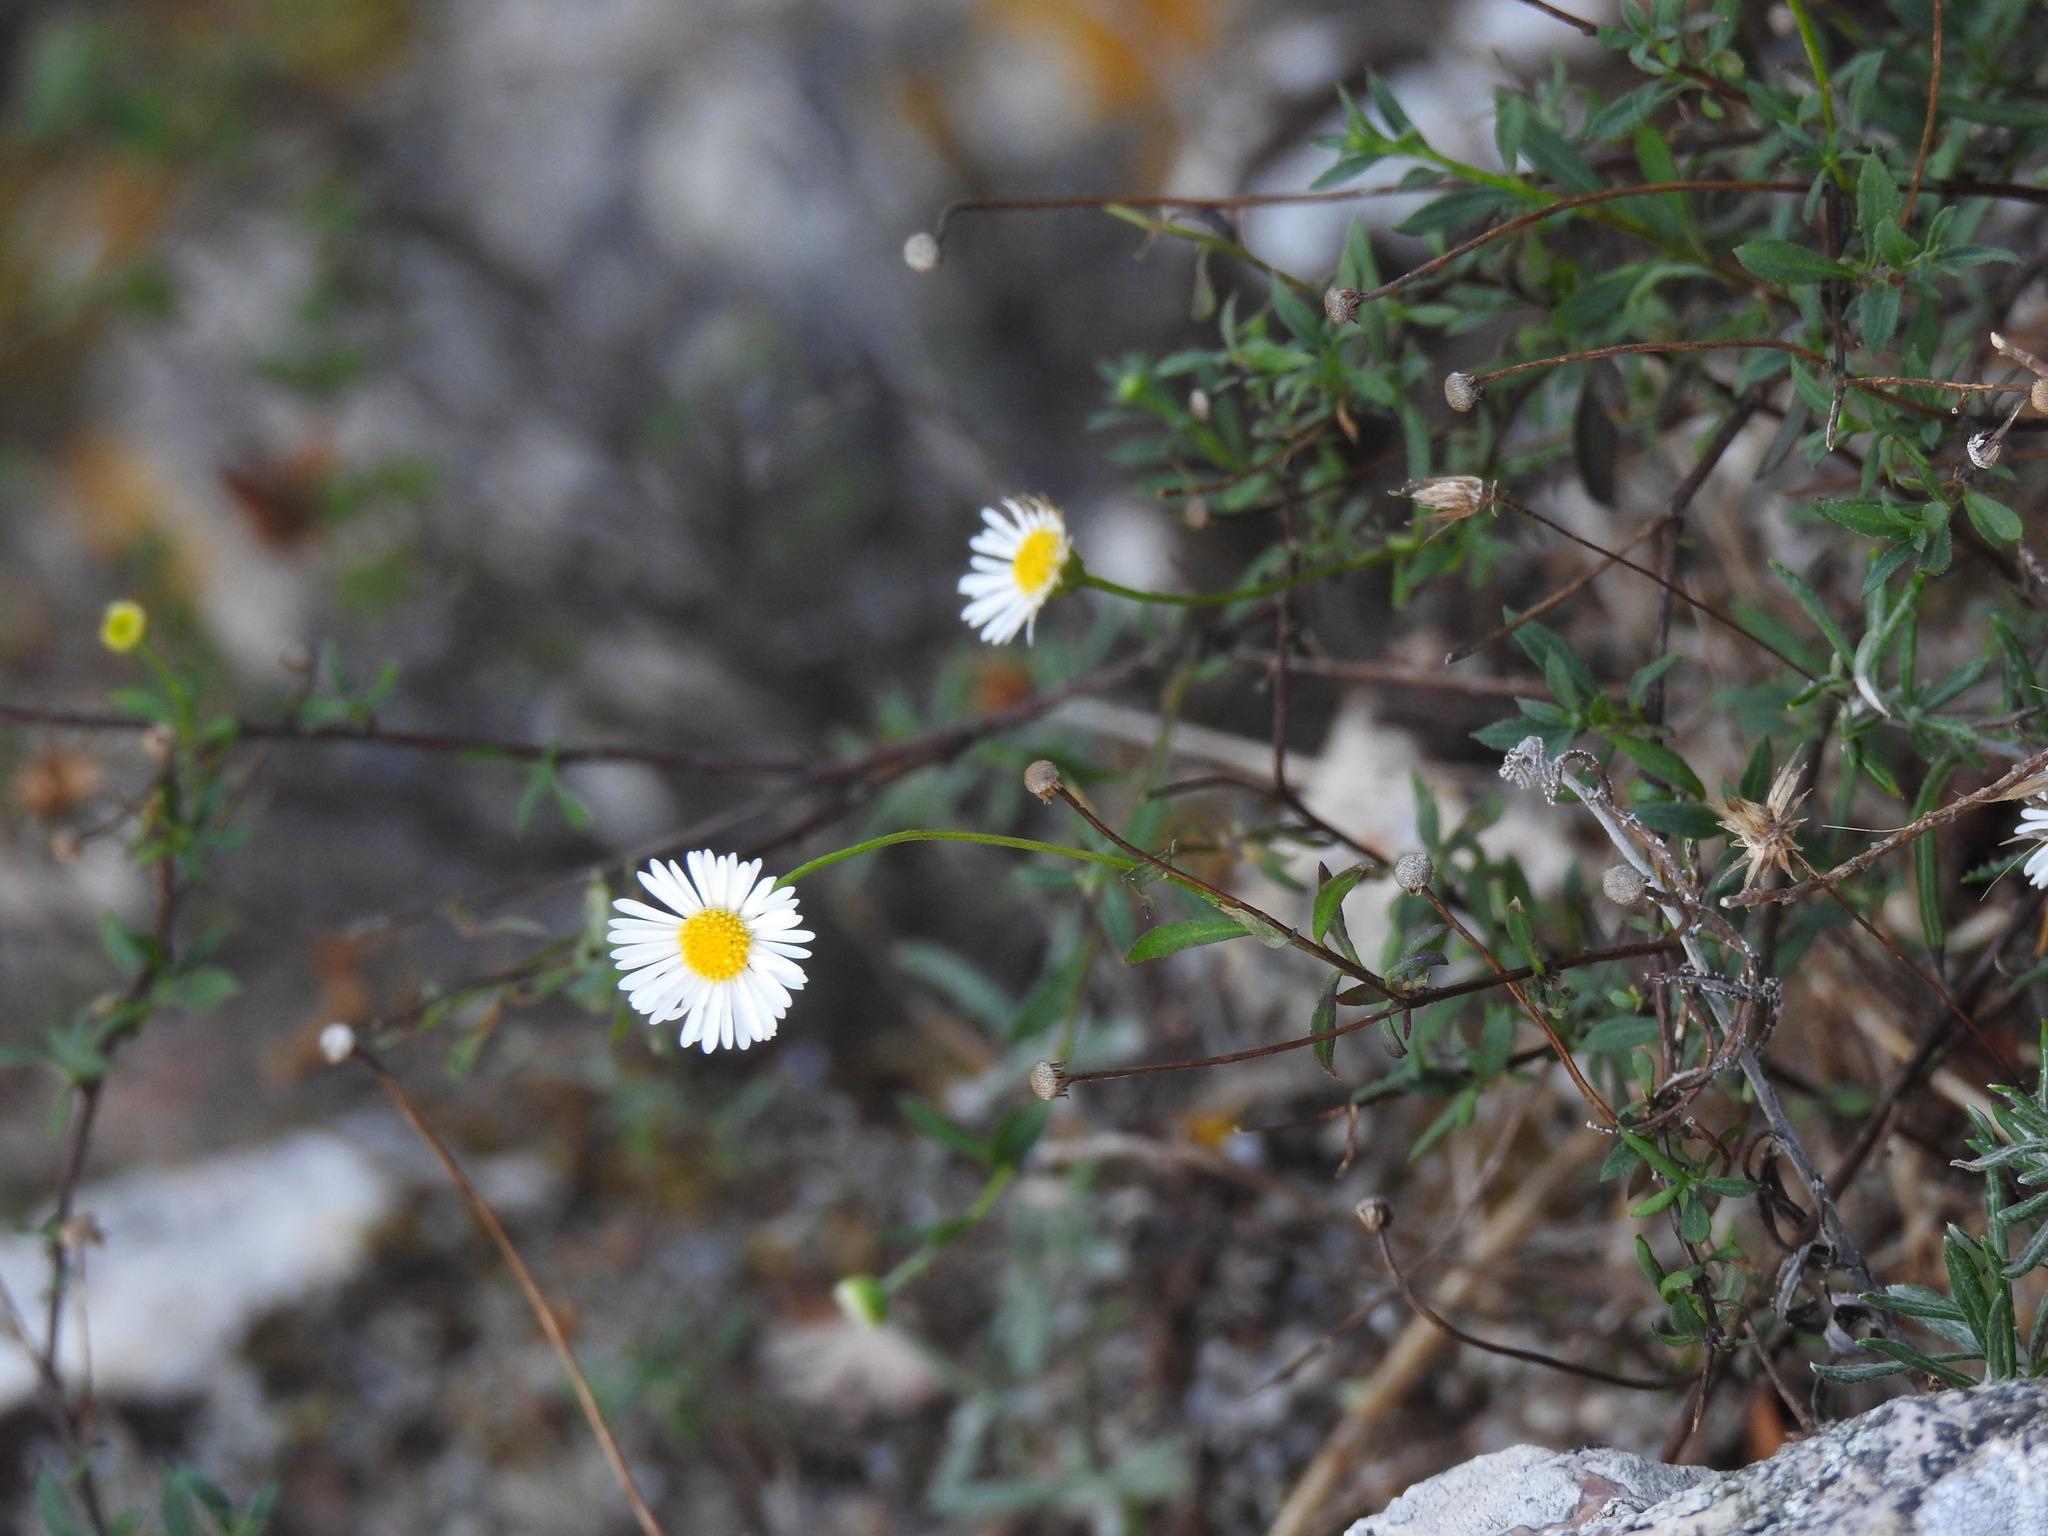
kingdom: Plantae
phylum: Tracheophyta
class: Magnoliopsida
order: Asterales
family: Asteraceae
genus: Erigeron
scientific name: Erigeron karvinskianus
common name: Mexican fleabane
